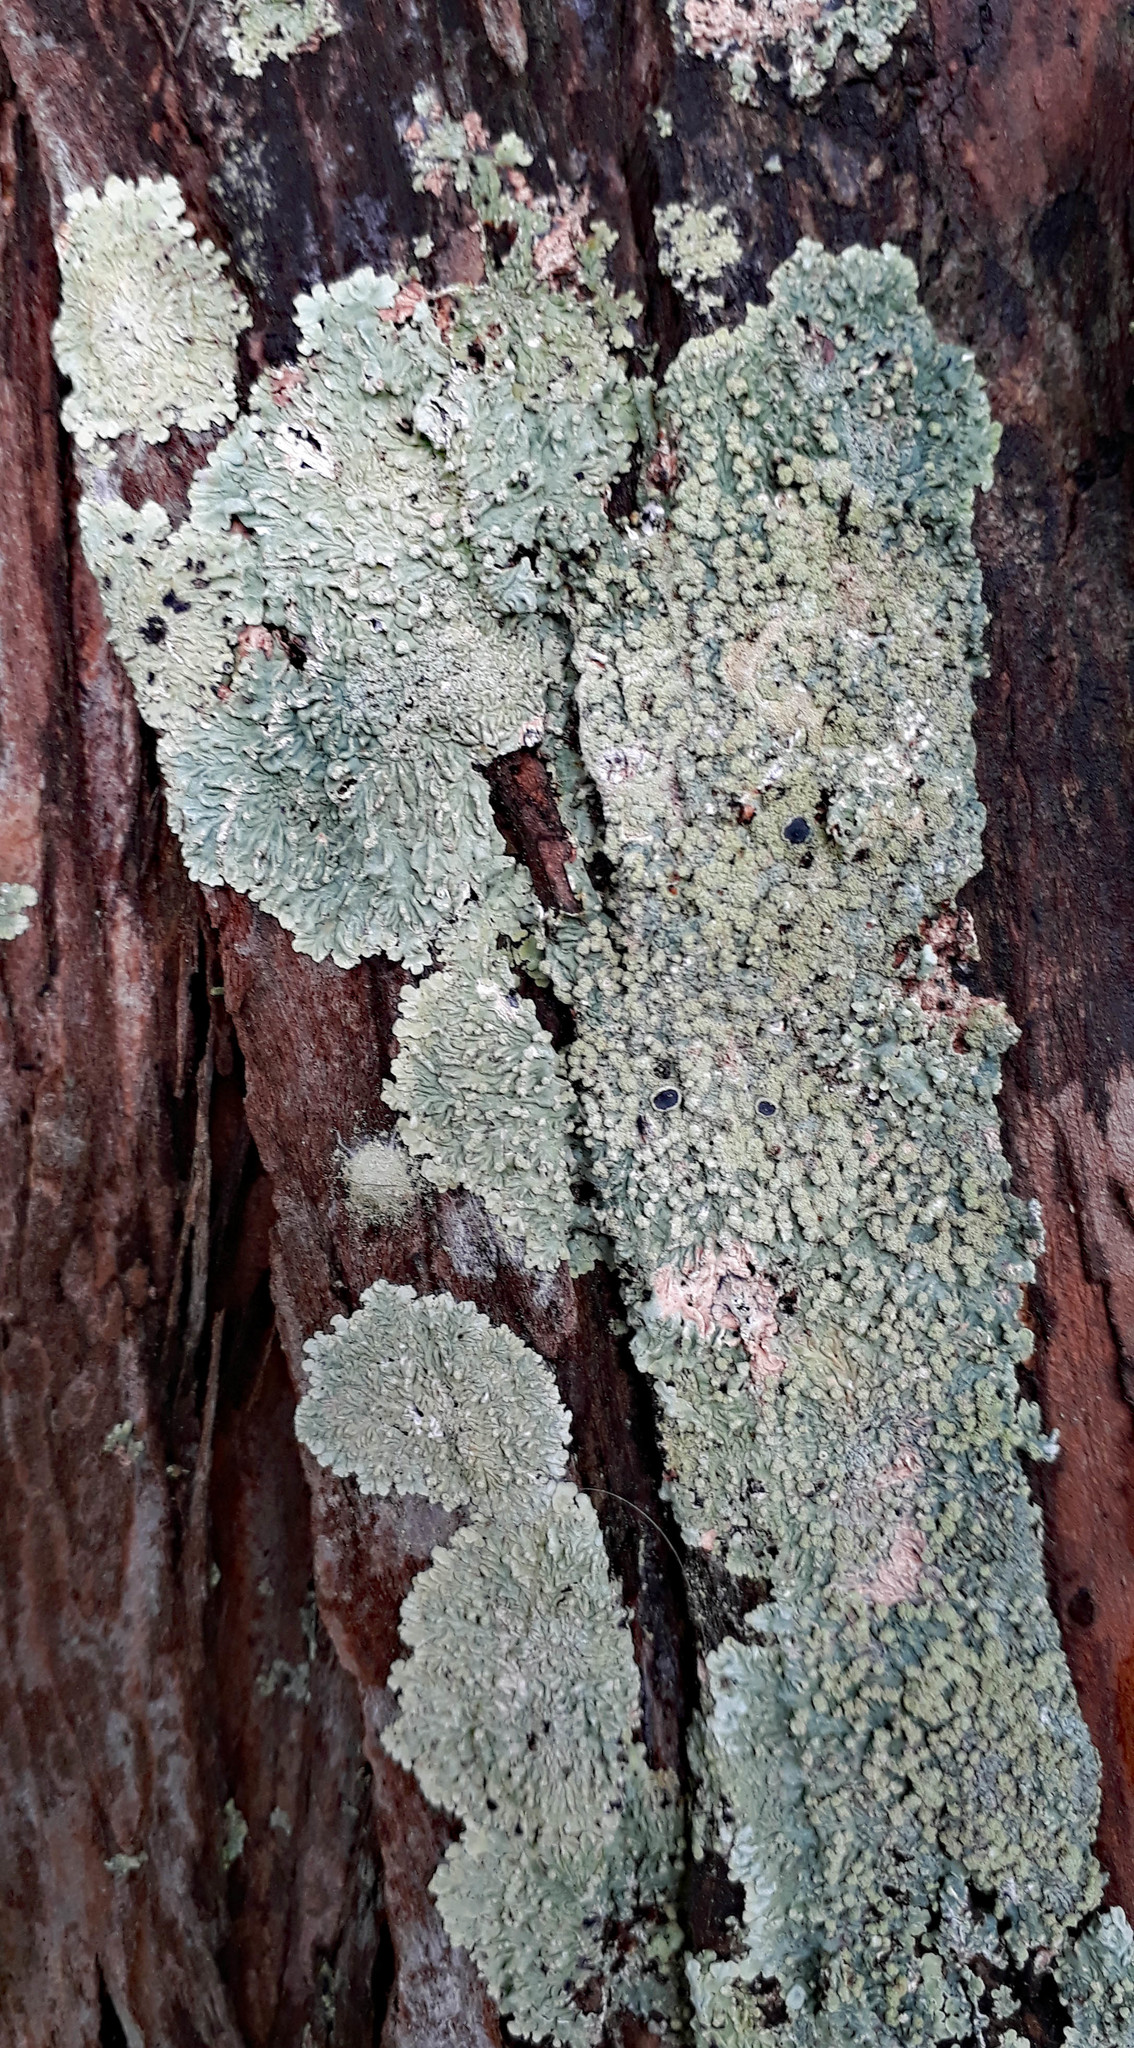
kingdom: Fungi
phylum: Ascomycota
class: Lecanoromycetes
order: Caliciales
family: Caliciaceae
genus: Dirinaria
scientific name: Dirinaria applanata
